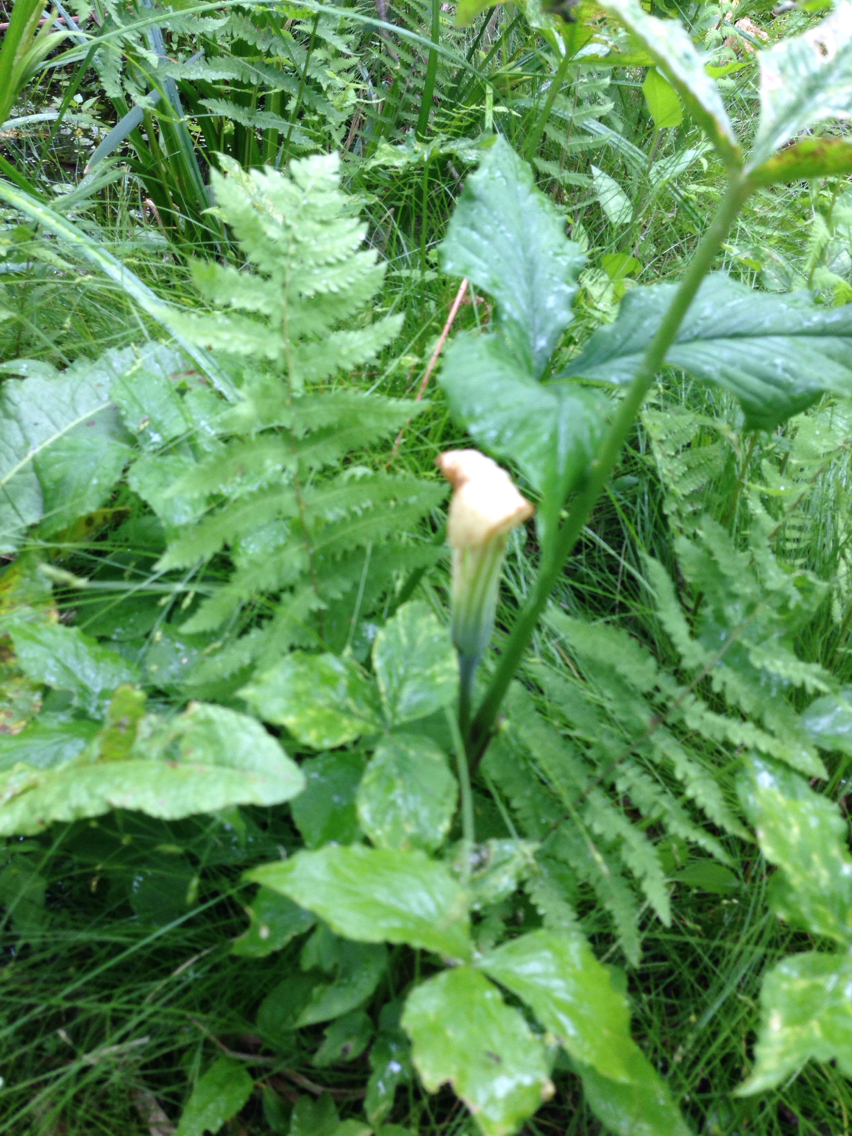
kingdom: Plantae
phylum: Tracheophyta
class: Liliopsida
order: Alismatales
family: Araceae
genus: Arisaema
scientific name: Arisaema stewardsonii
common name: Swamp jack-in-the-pulpit
